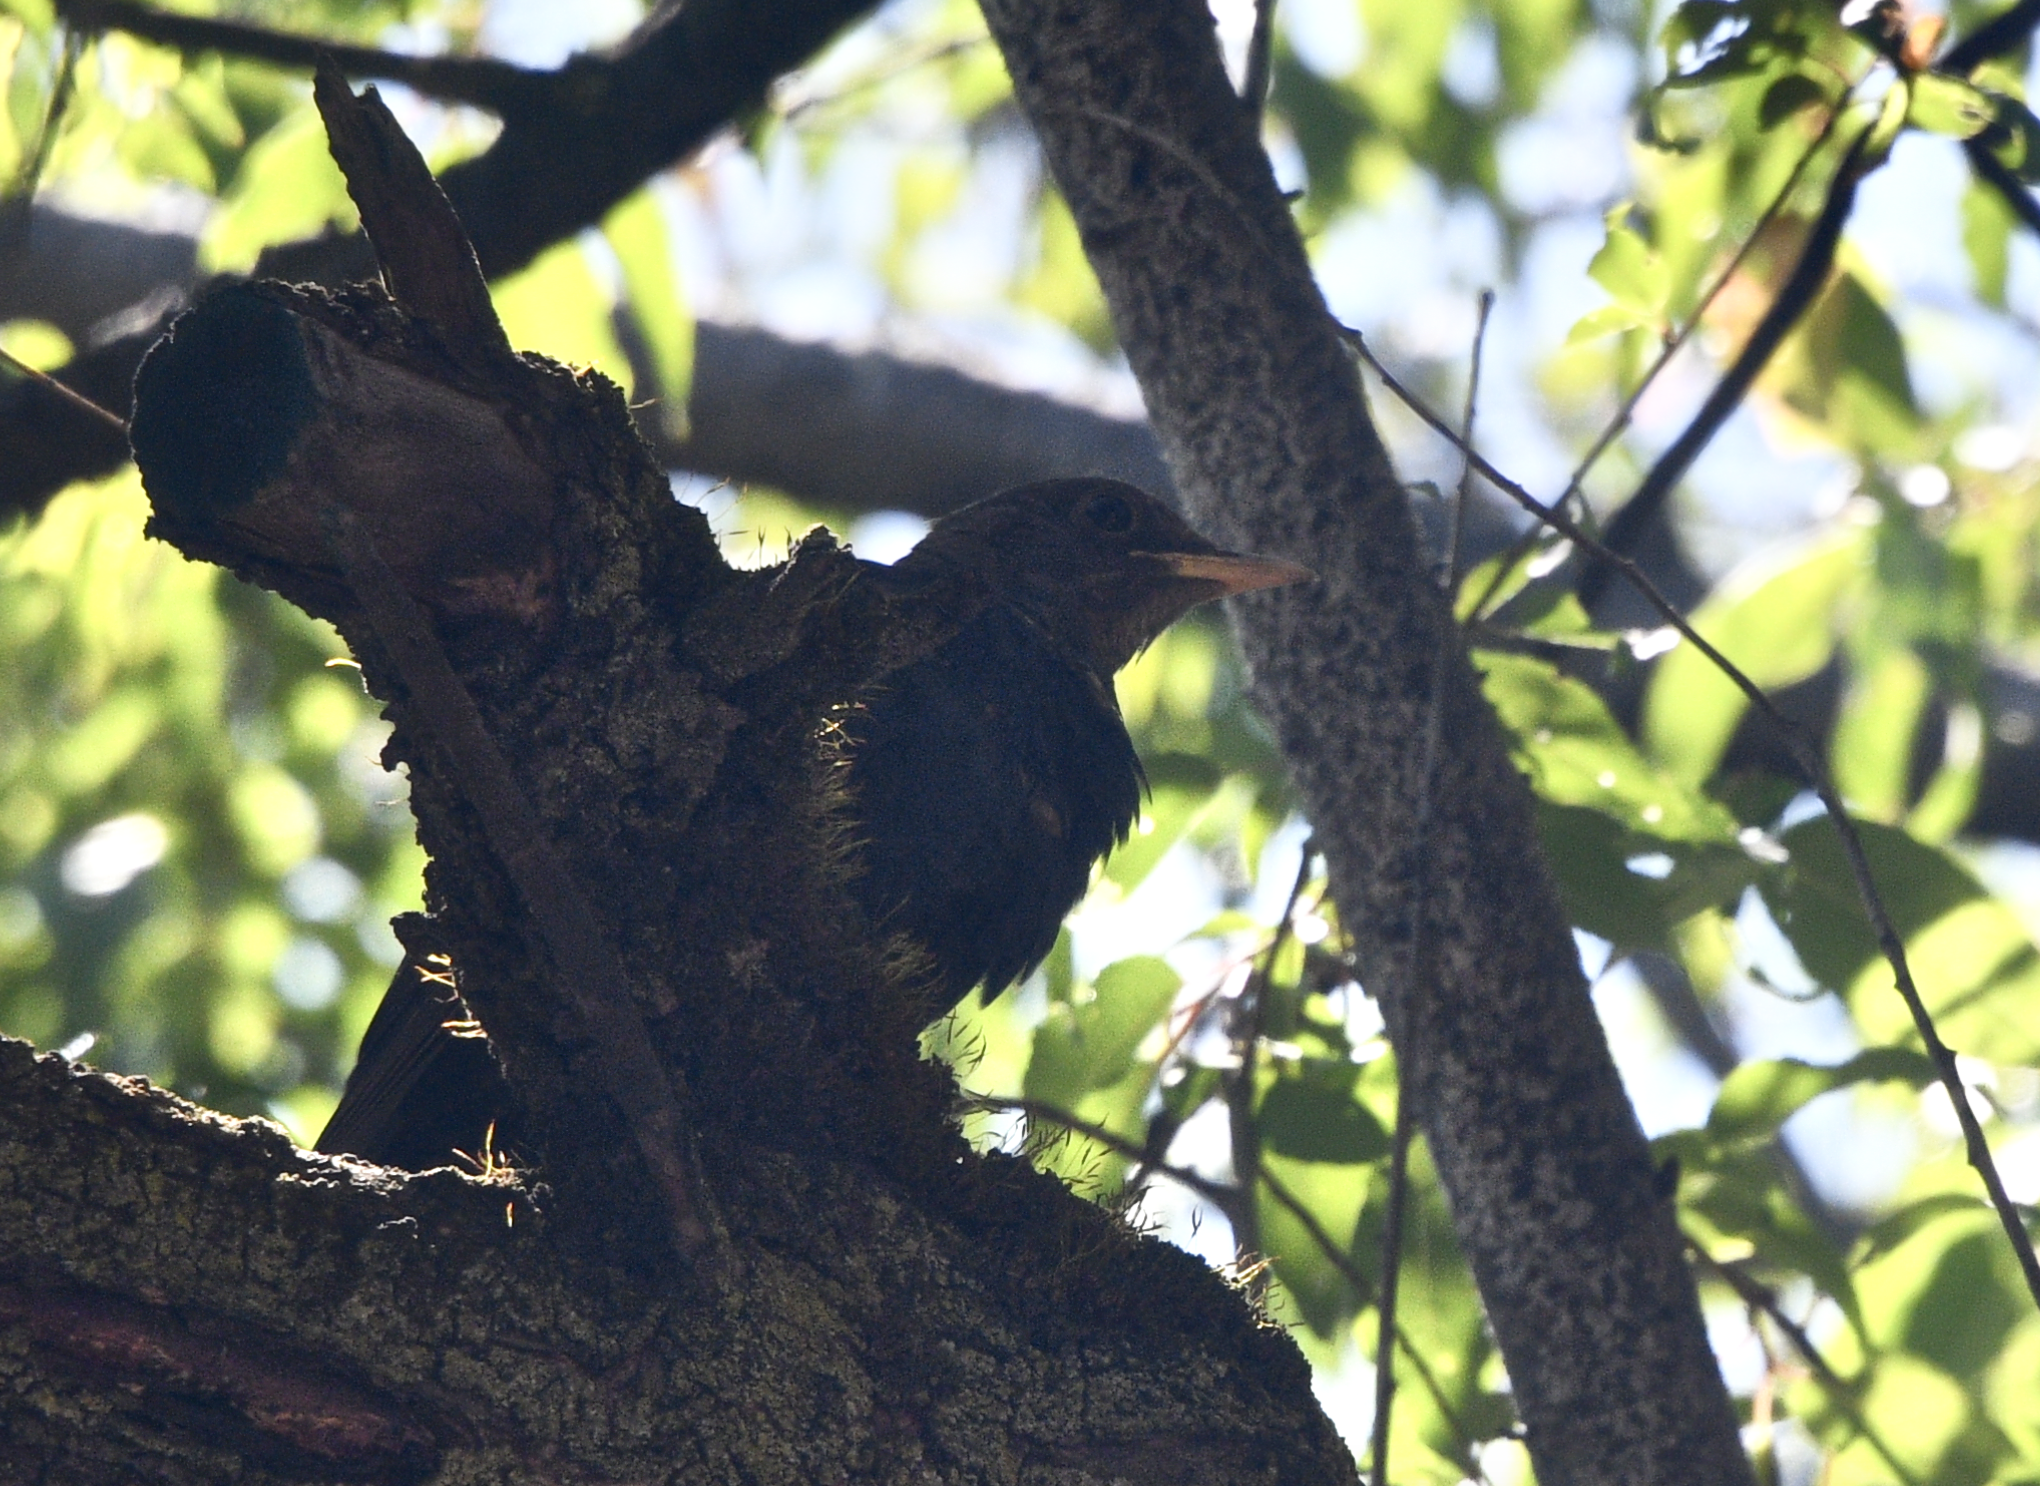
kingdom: Animalia
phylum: Chordata
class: Aves
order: Passeriformes
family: Turdidae
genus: Turdus
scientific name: Turdus maximus
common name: Tibetan blackbird
